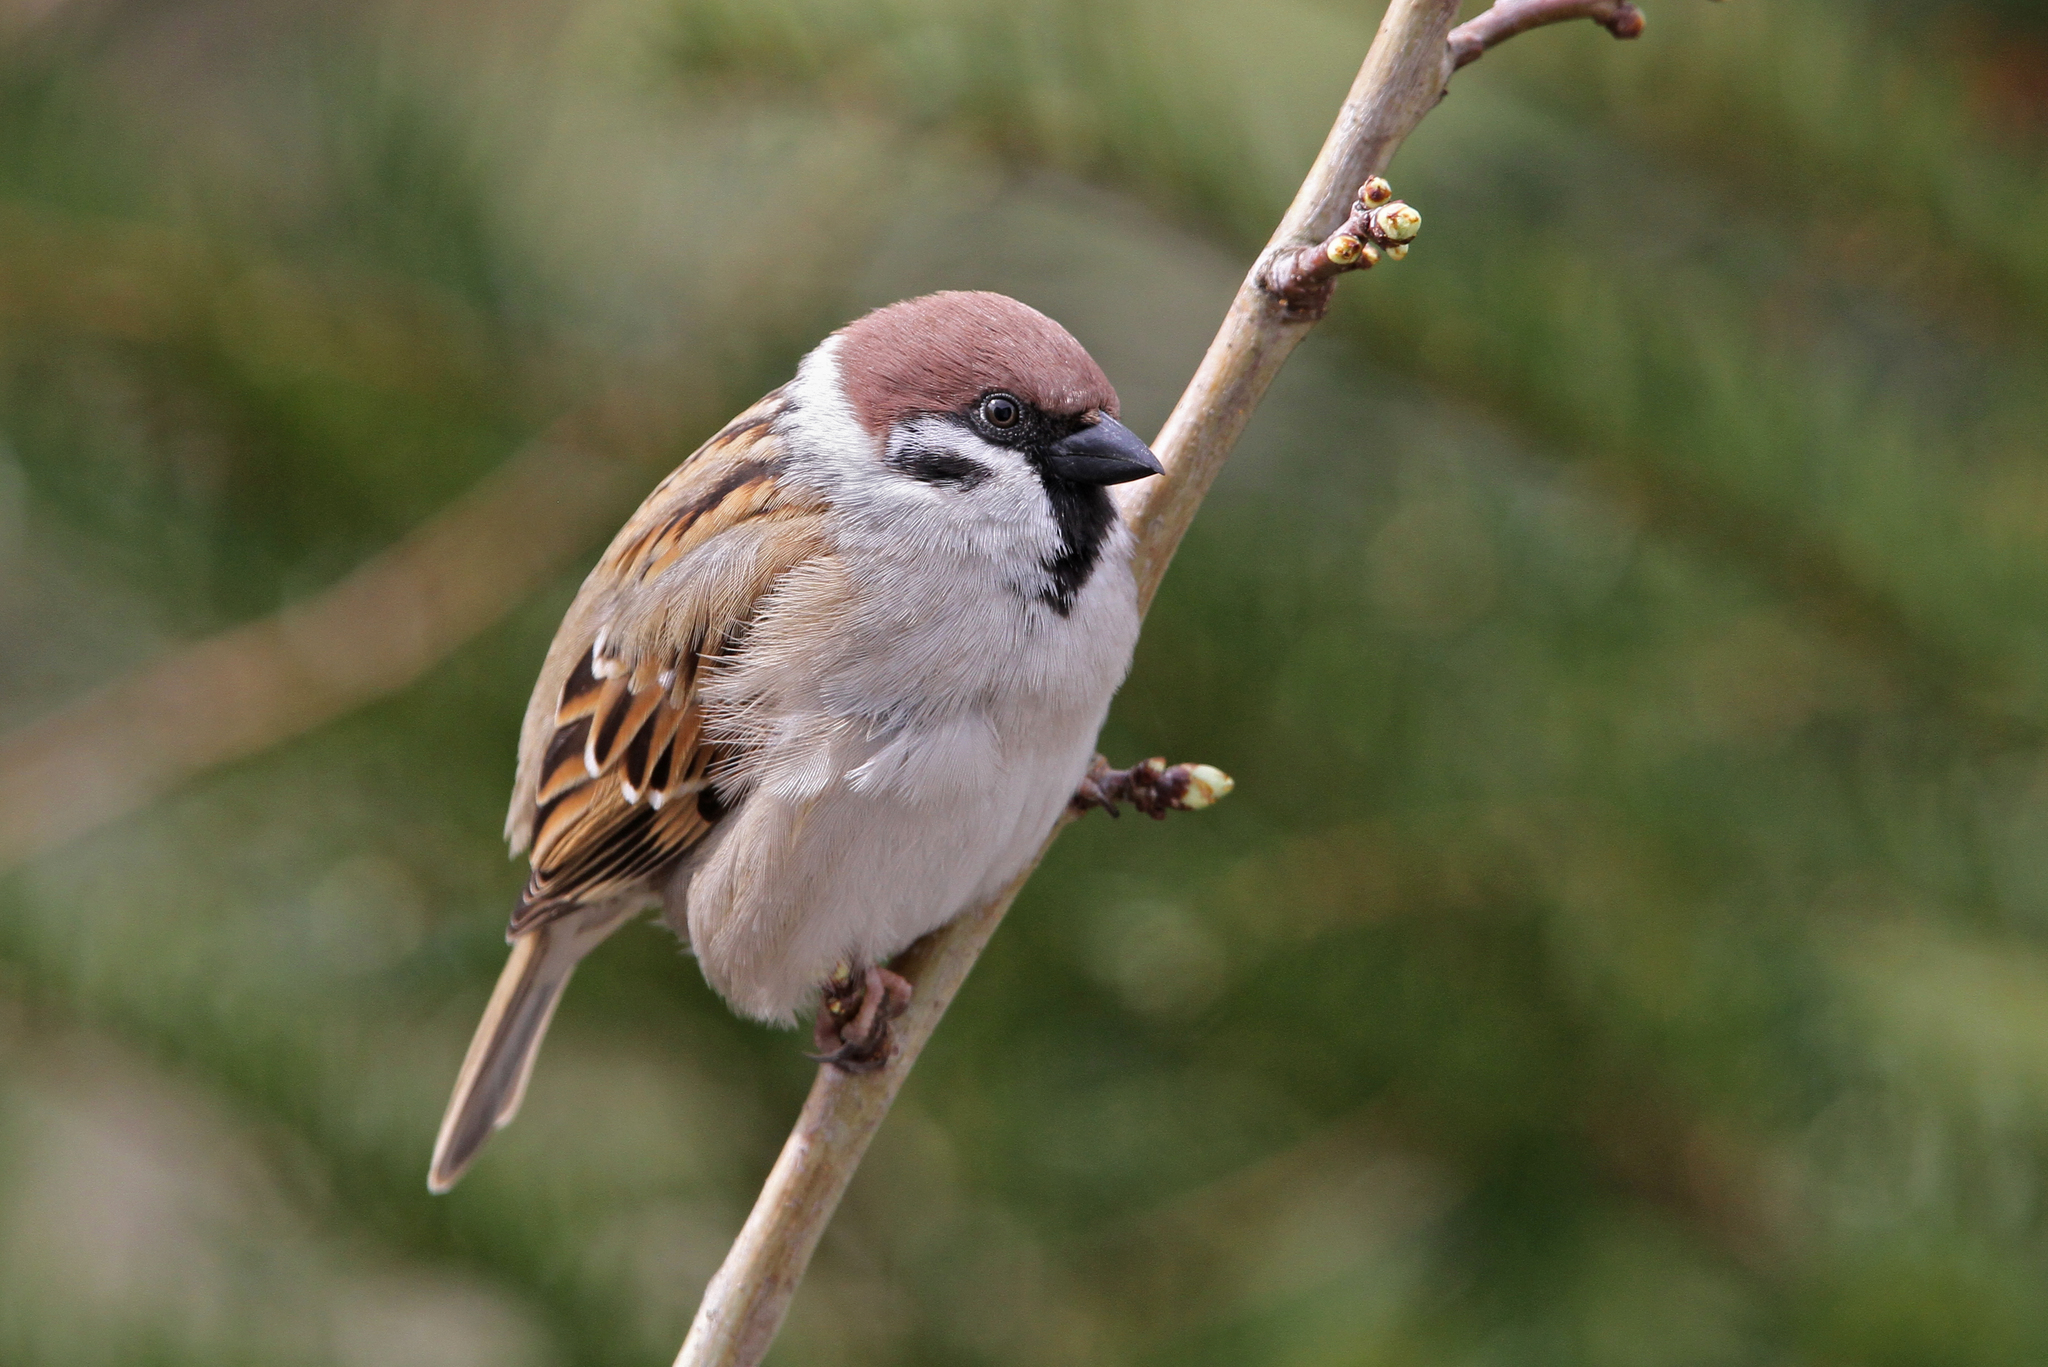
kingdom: Animalia
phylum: Chordata
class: Aves
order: Passeriformes
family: Passeridae
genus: Passer
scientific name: Passer montanus
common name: Eurasian tree sparrow
